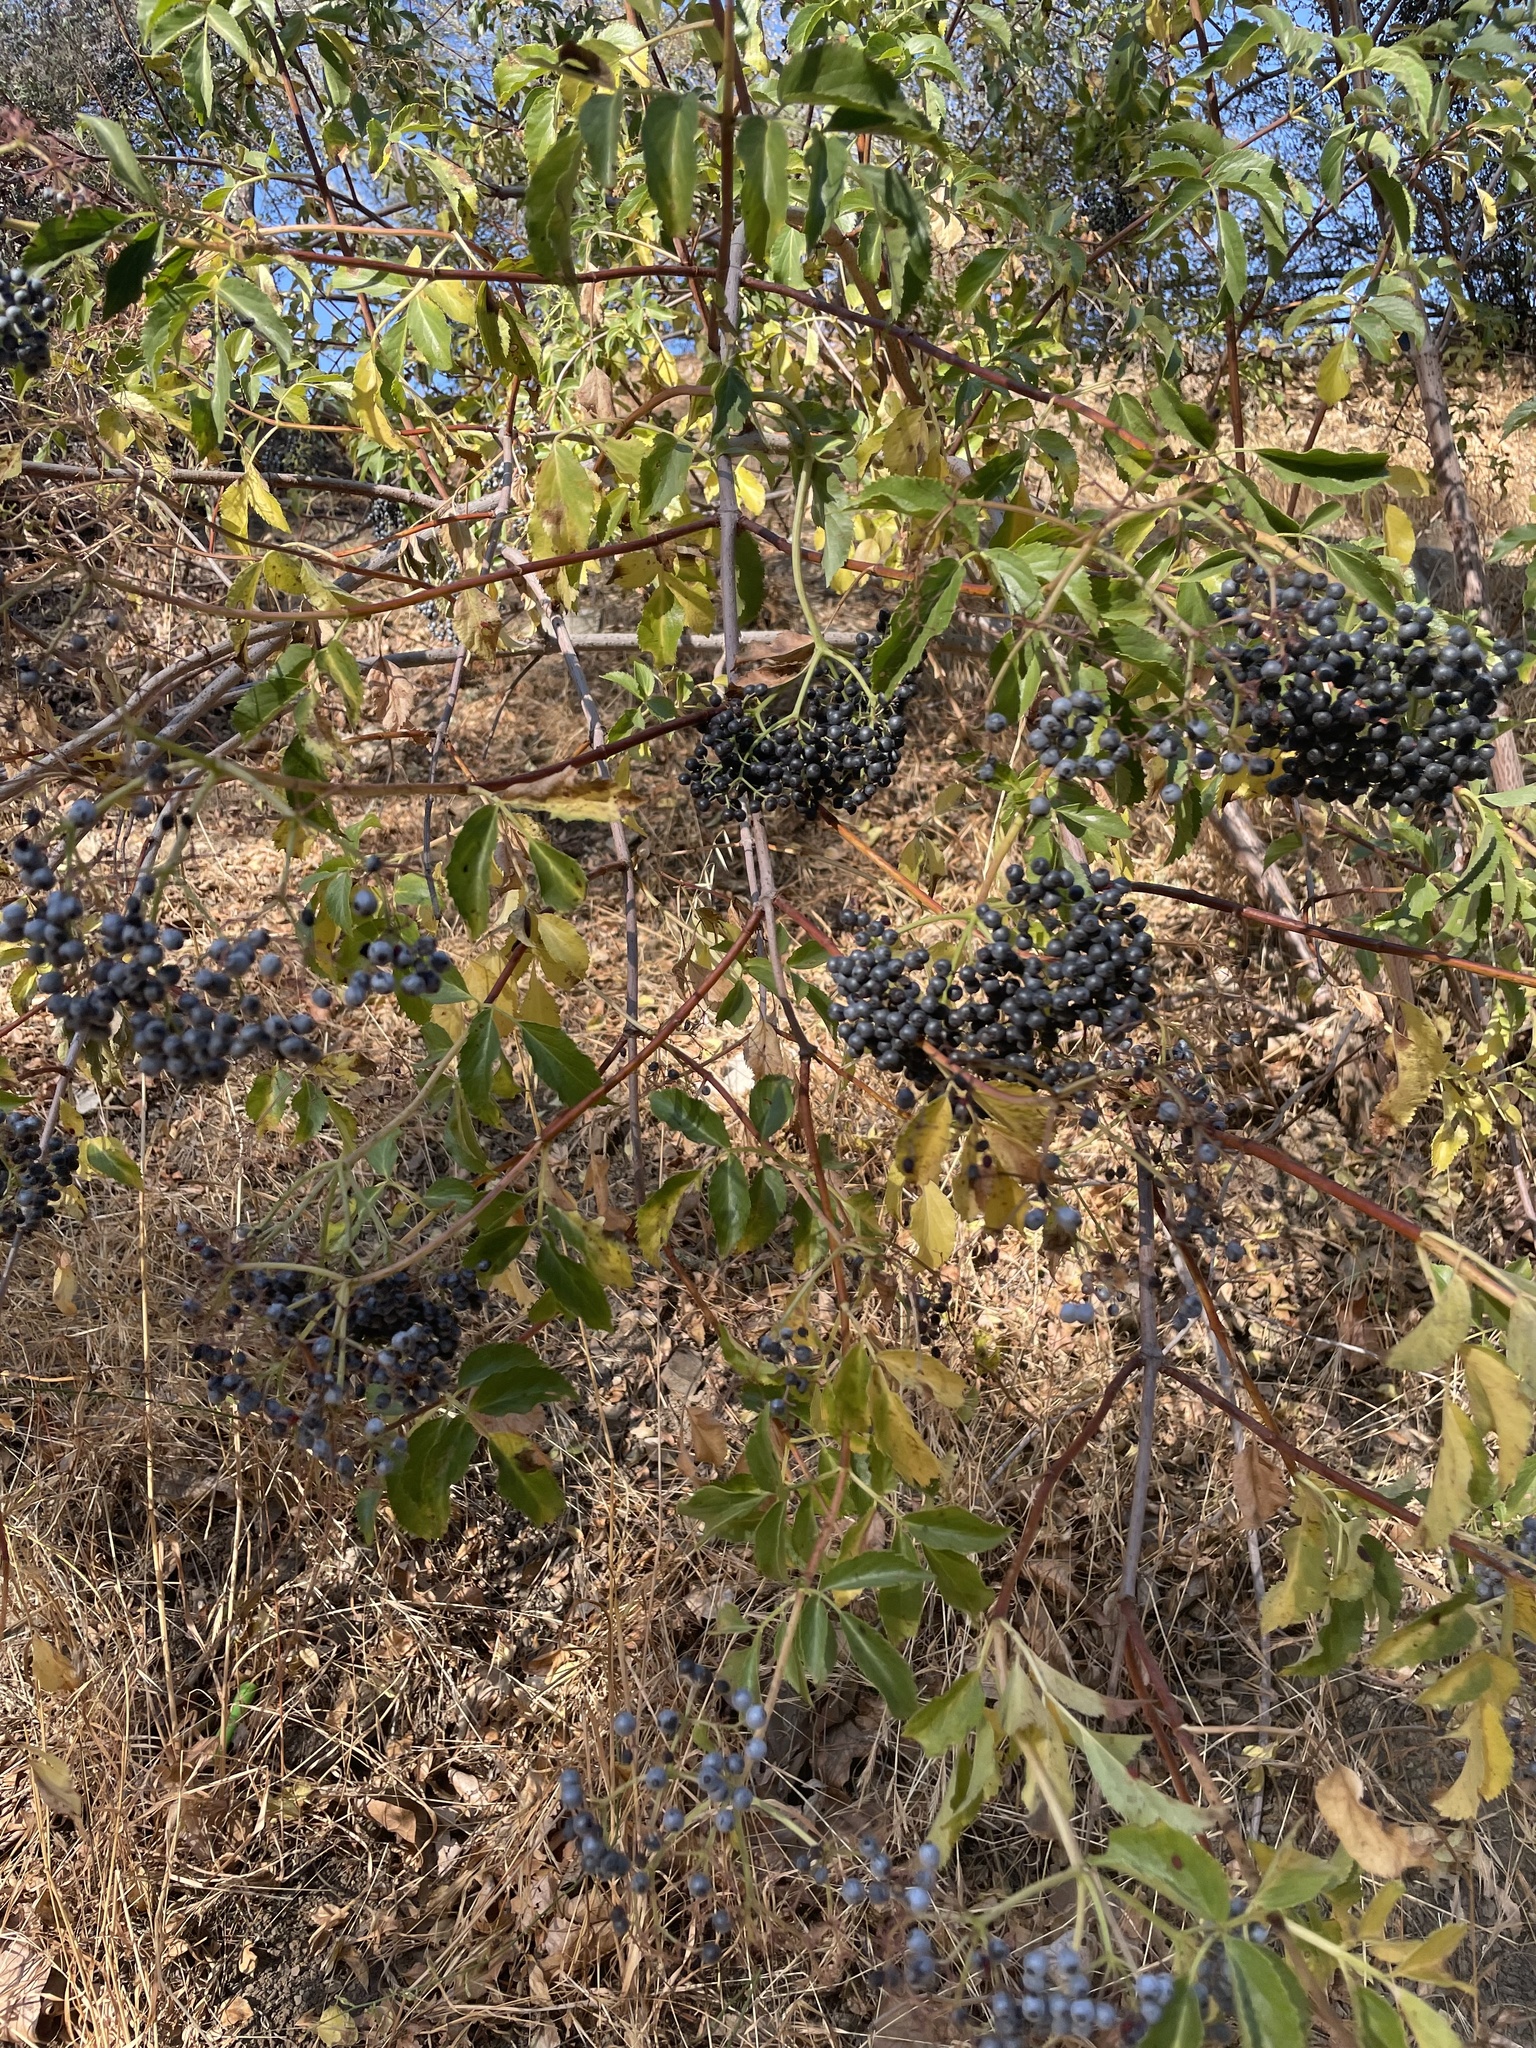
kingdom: Plantae
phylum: Tracheophyta
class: Magnoliopsida
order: Dipsacales
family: Viburnaceae
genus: Sambucus
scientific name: Sambucus cerulea
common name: Blue elder
